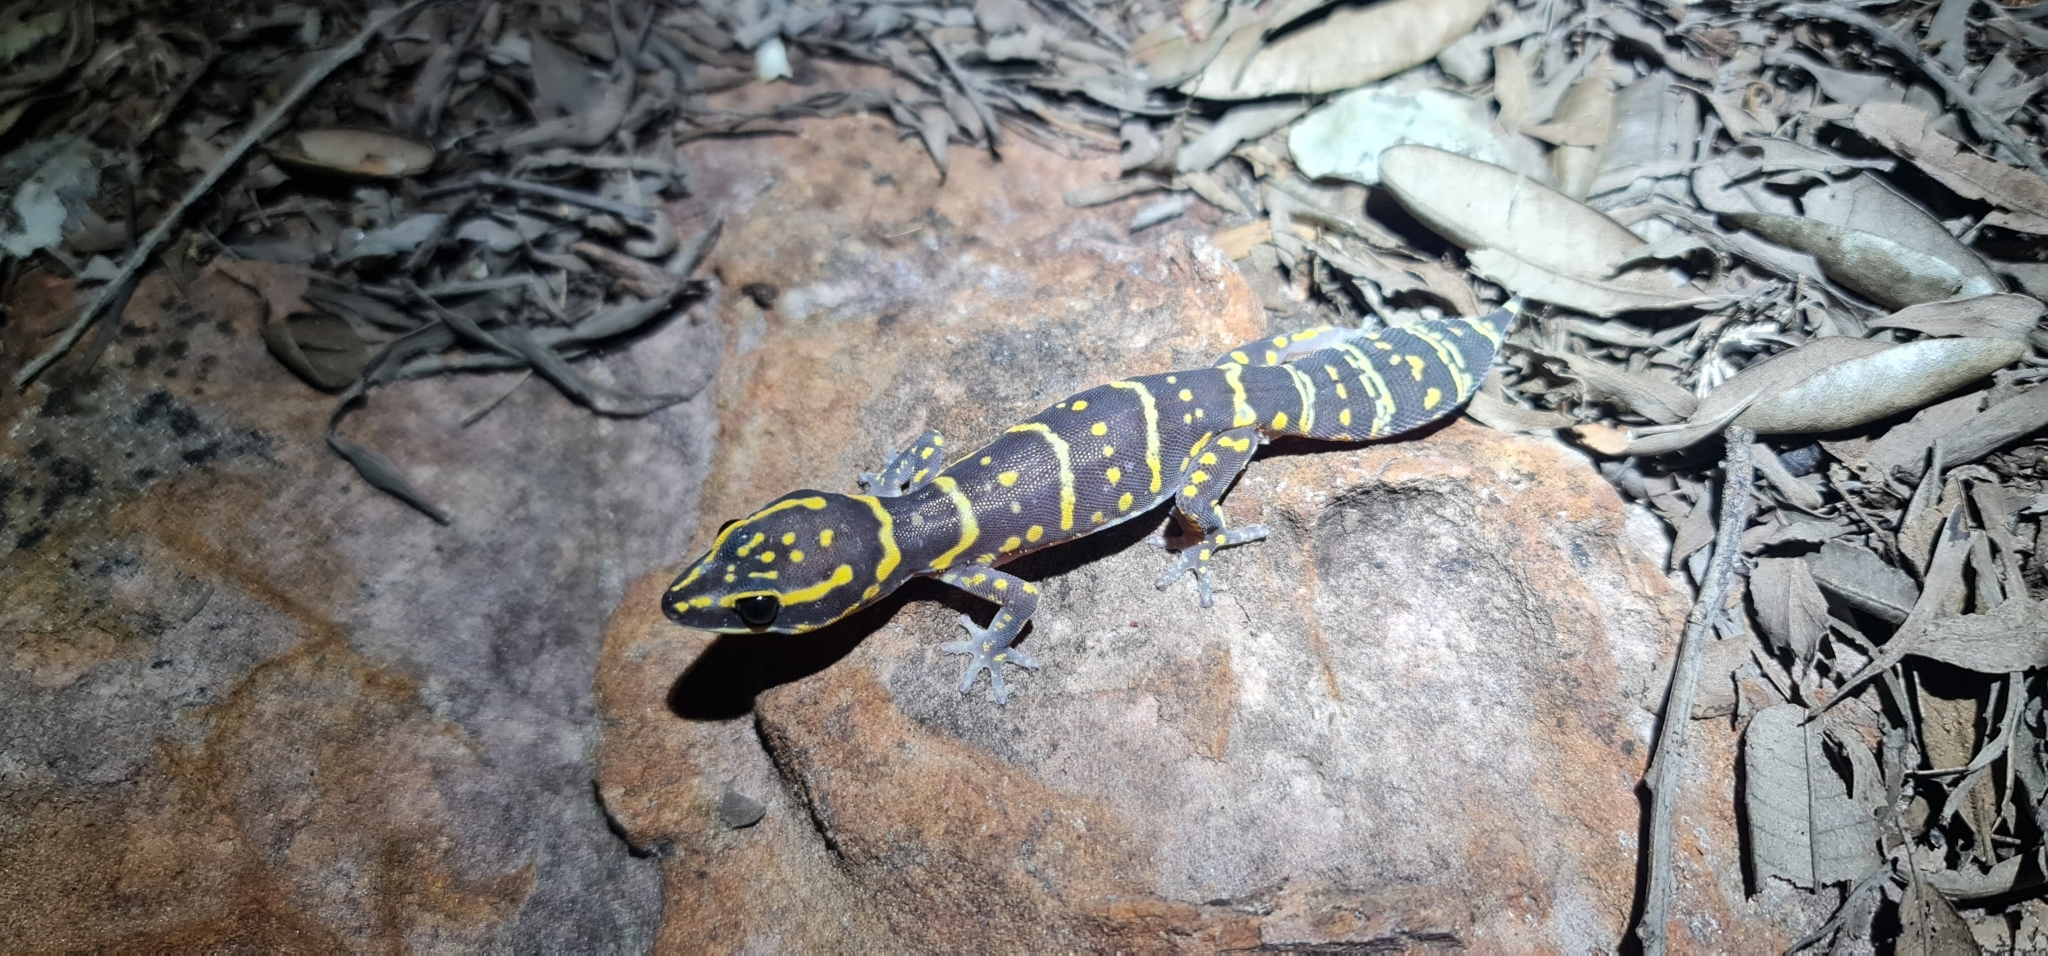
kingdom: Animalia
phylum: Chordata
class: Squamata
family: Diplodactylidae
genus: Oedura
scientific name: Oedura marmorata
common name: Marbled velvet gecko
